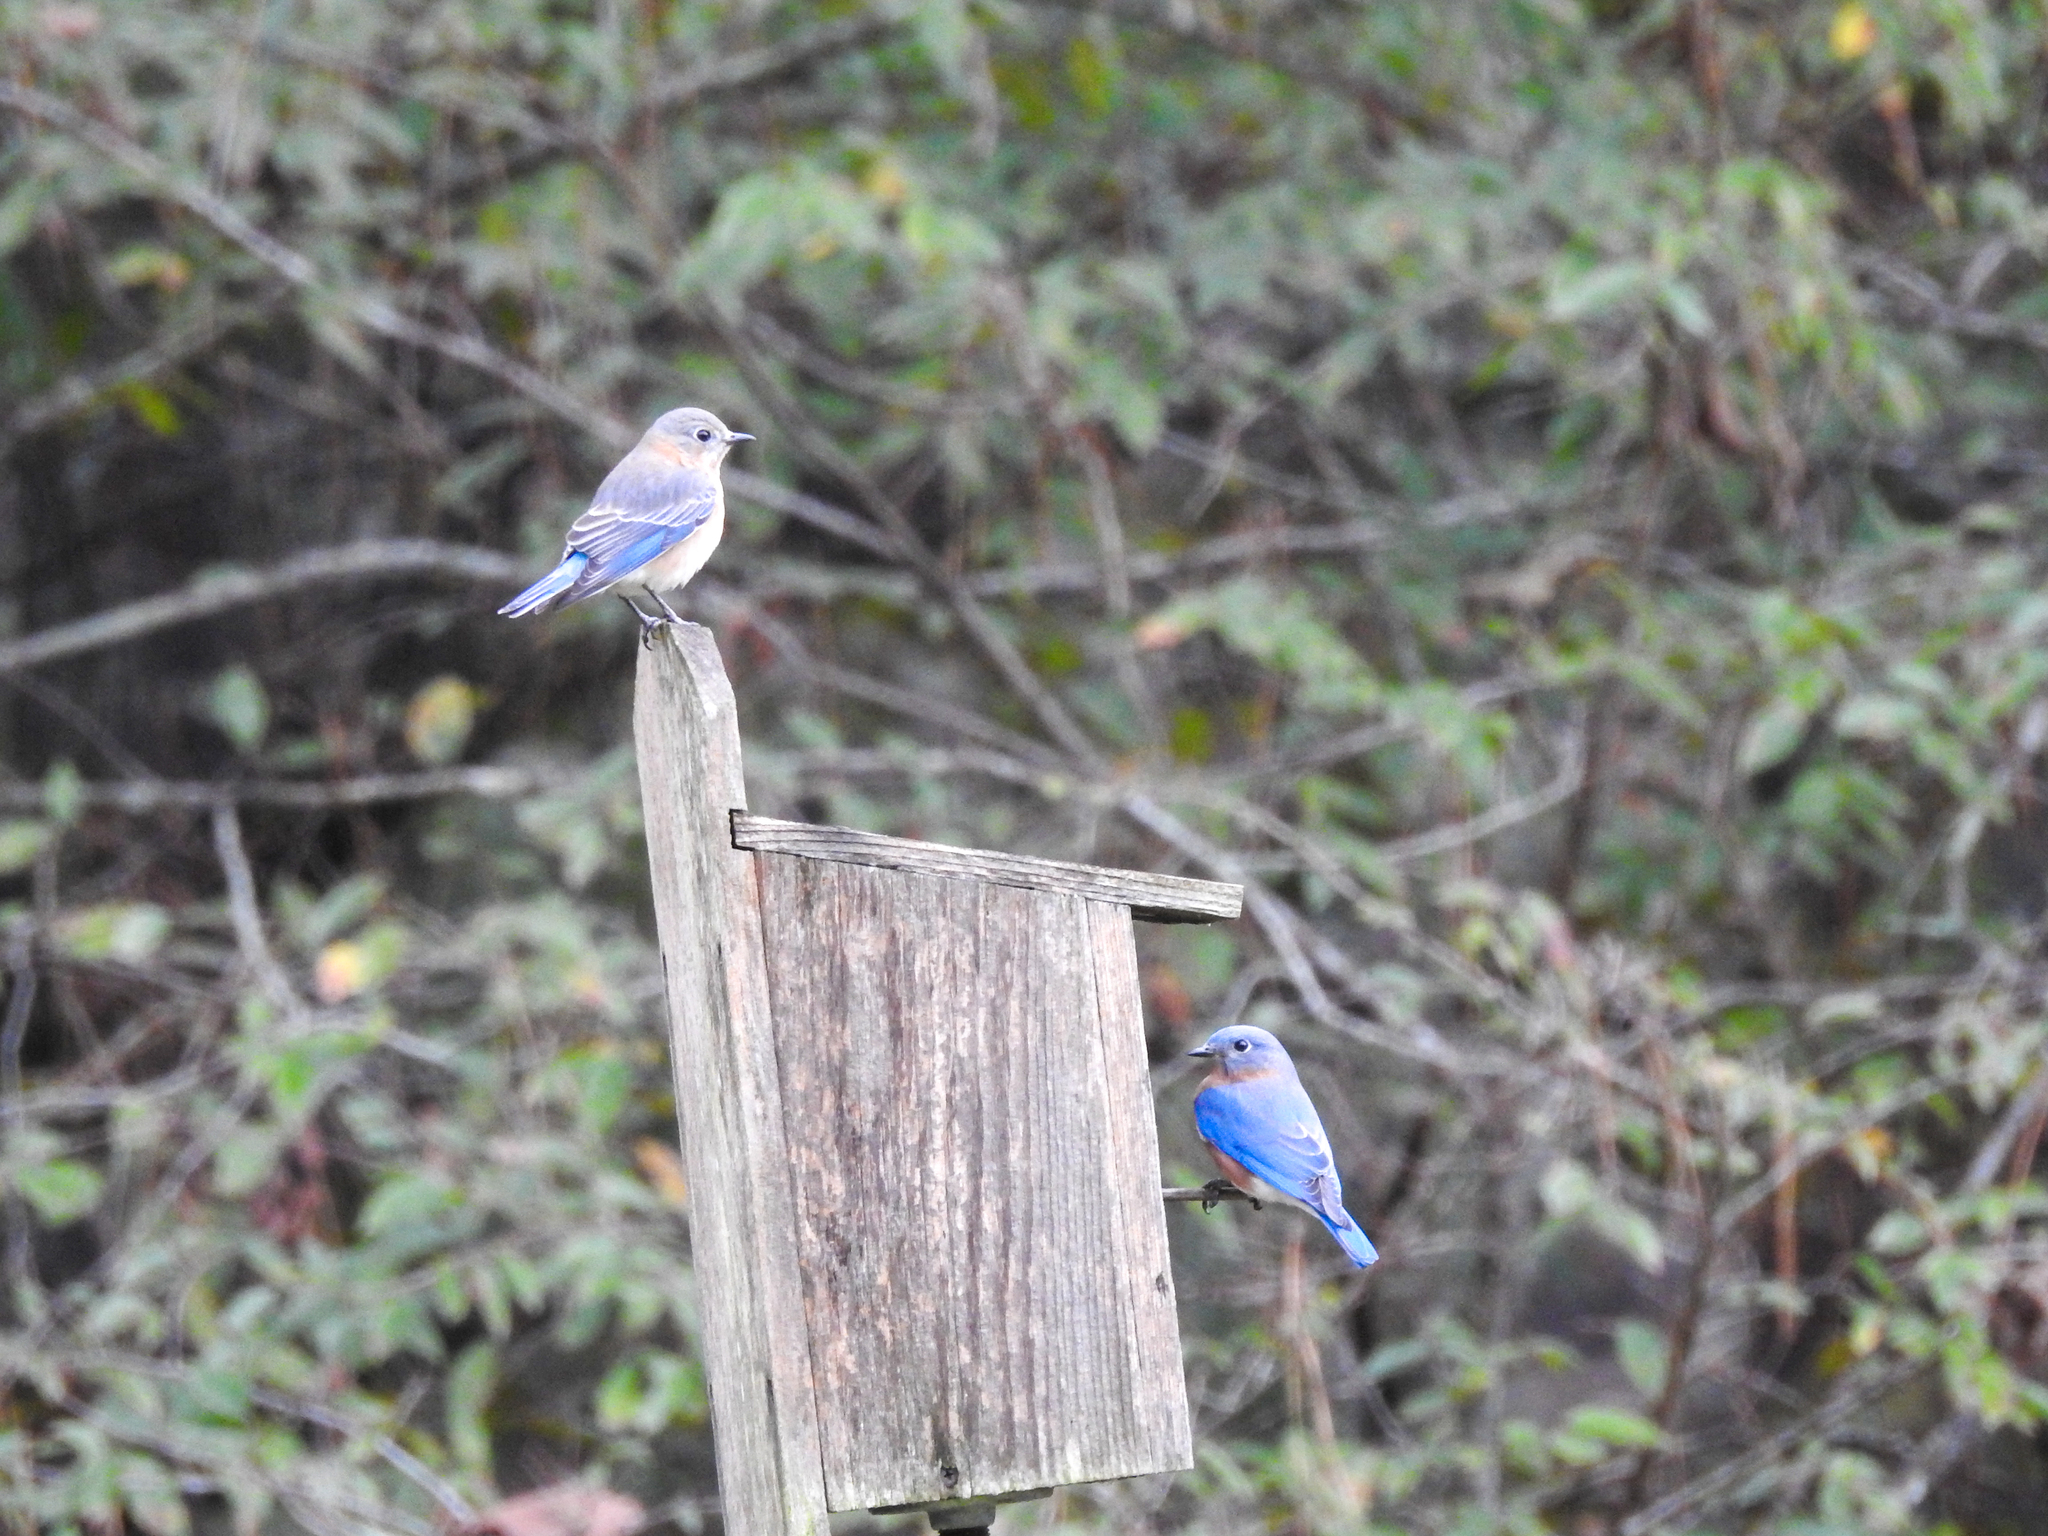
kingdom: Animalia
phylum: Chordata
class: Aves
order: Passeriformes
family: Turdidae
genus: Sialia
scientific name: Sialia sialis
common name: Eastern bluebird
